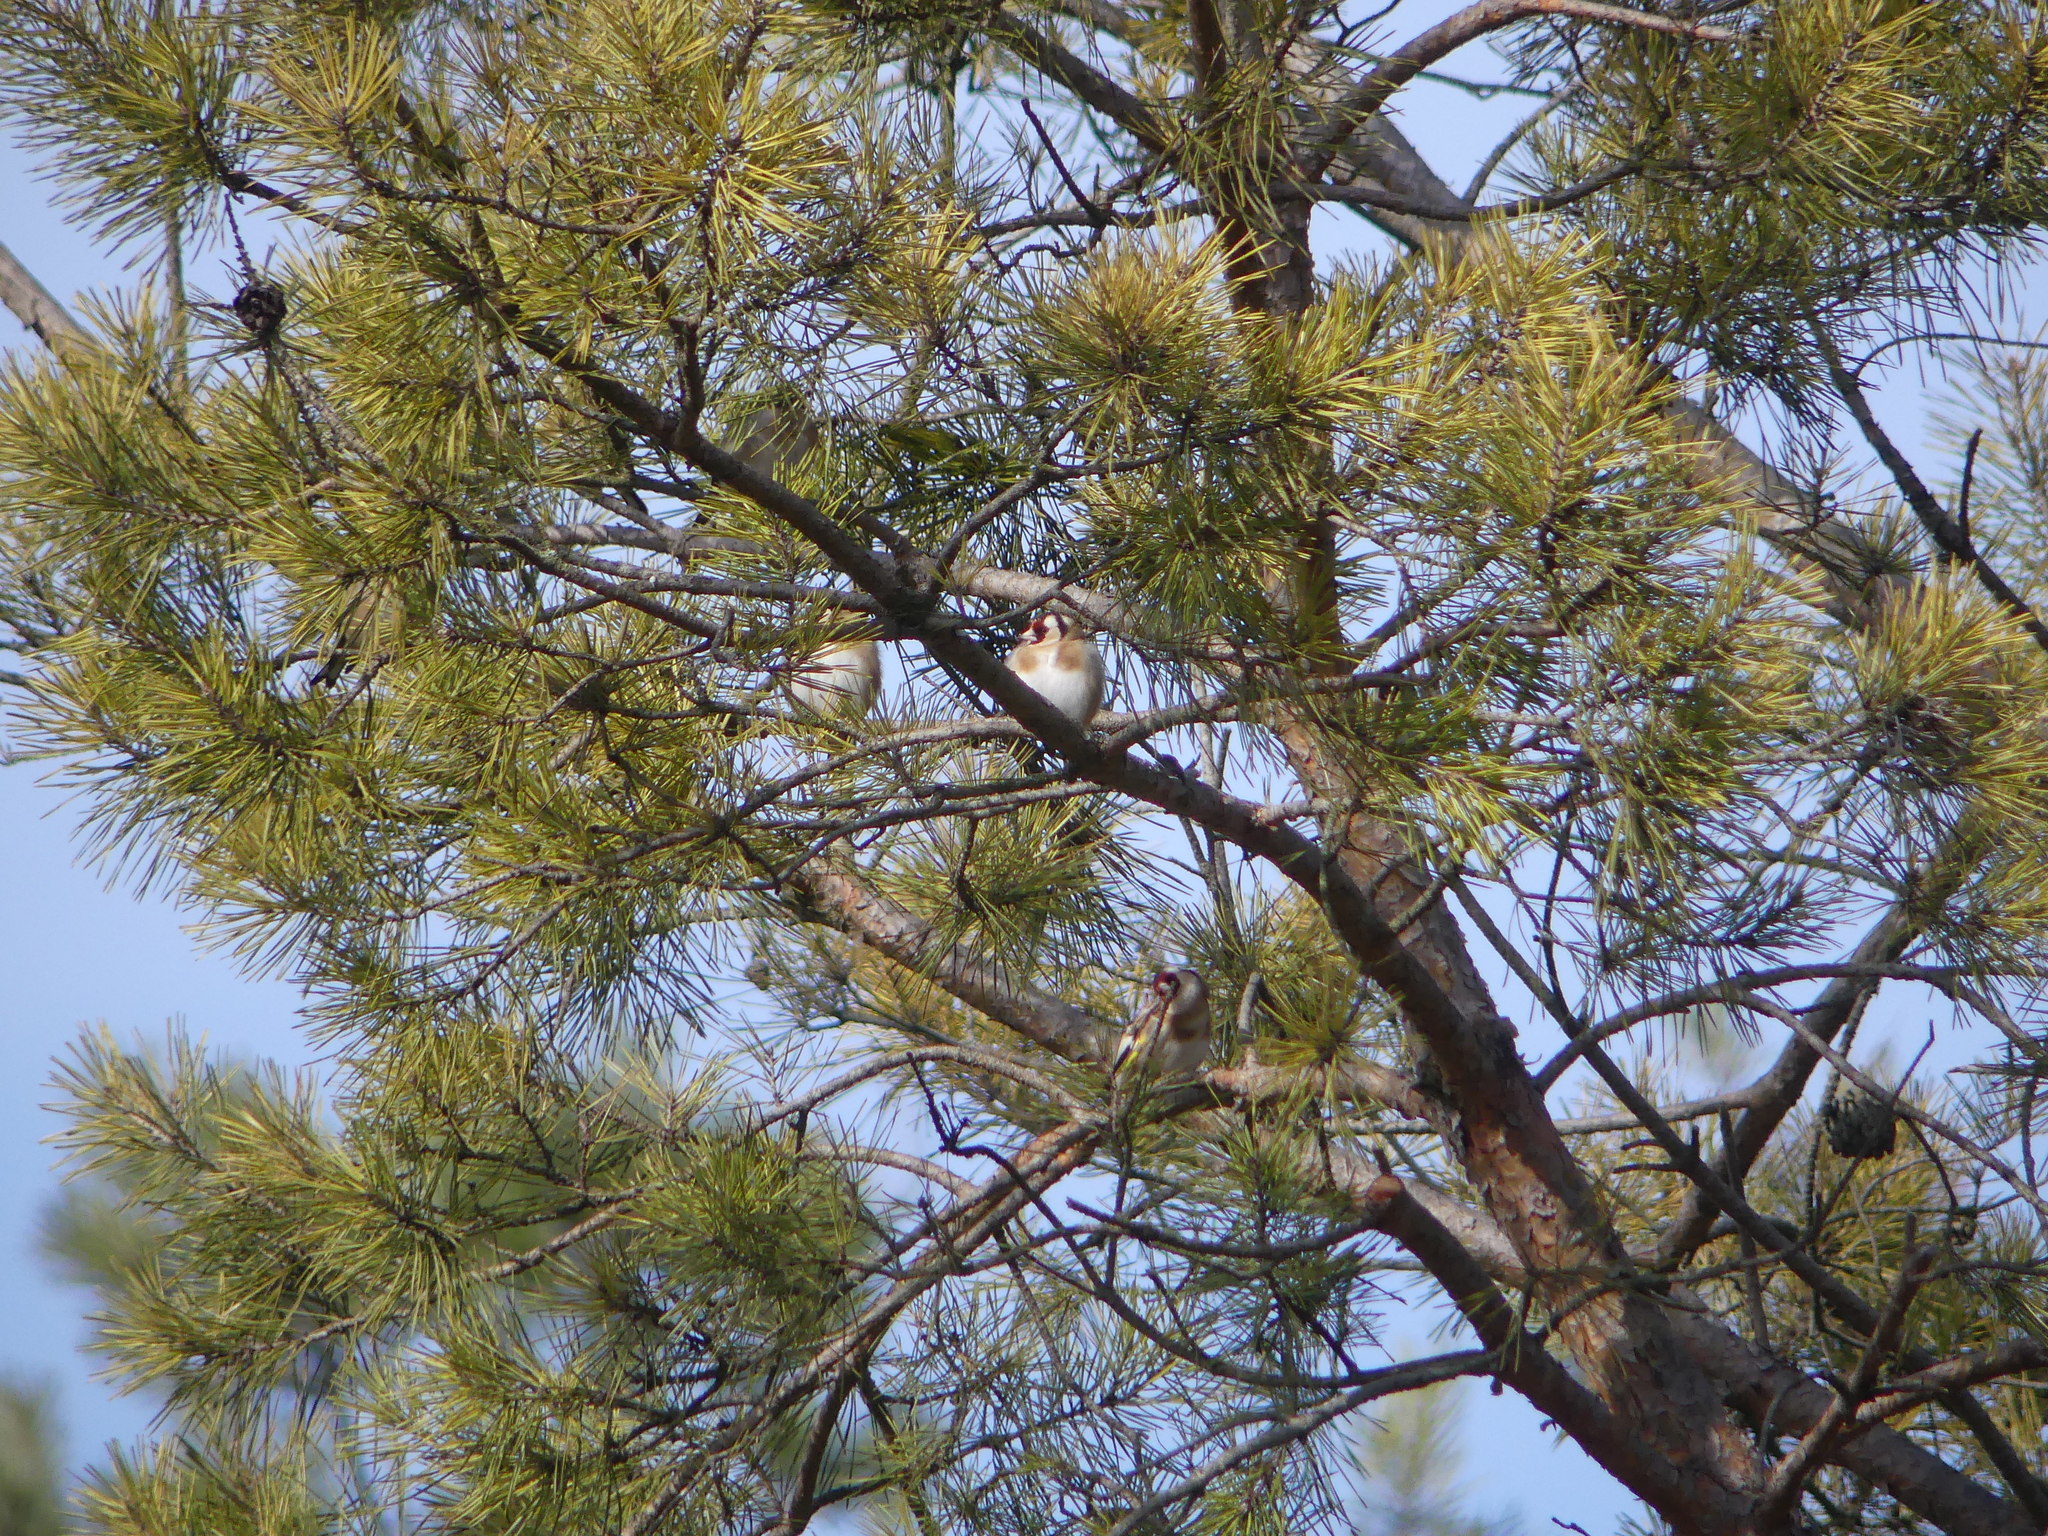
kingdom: Animalia
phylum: Chordata
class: Aves
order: Passeriformes
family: Fringillidae
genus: Carduelis
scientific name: Carduelis carduelis
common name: European goldfinch
